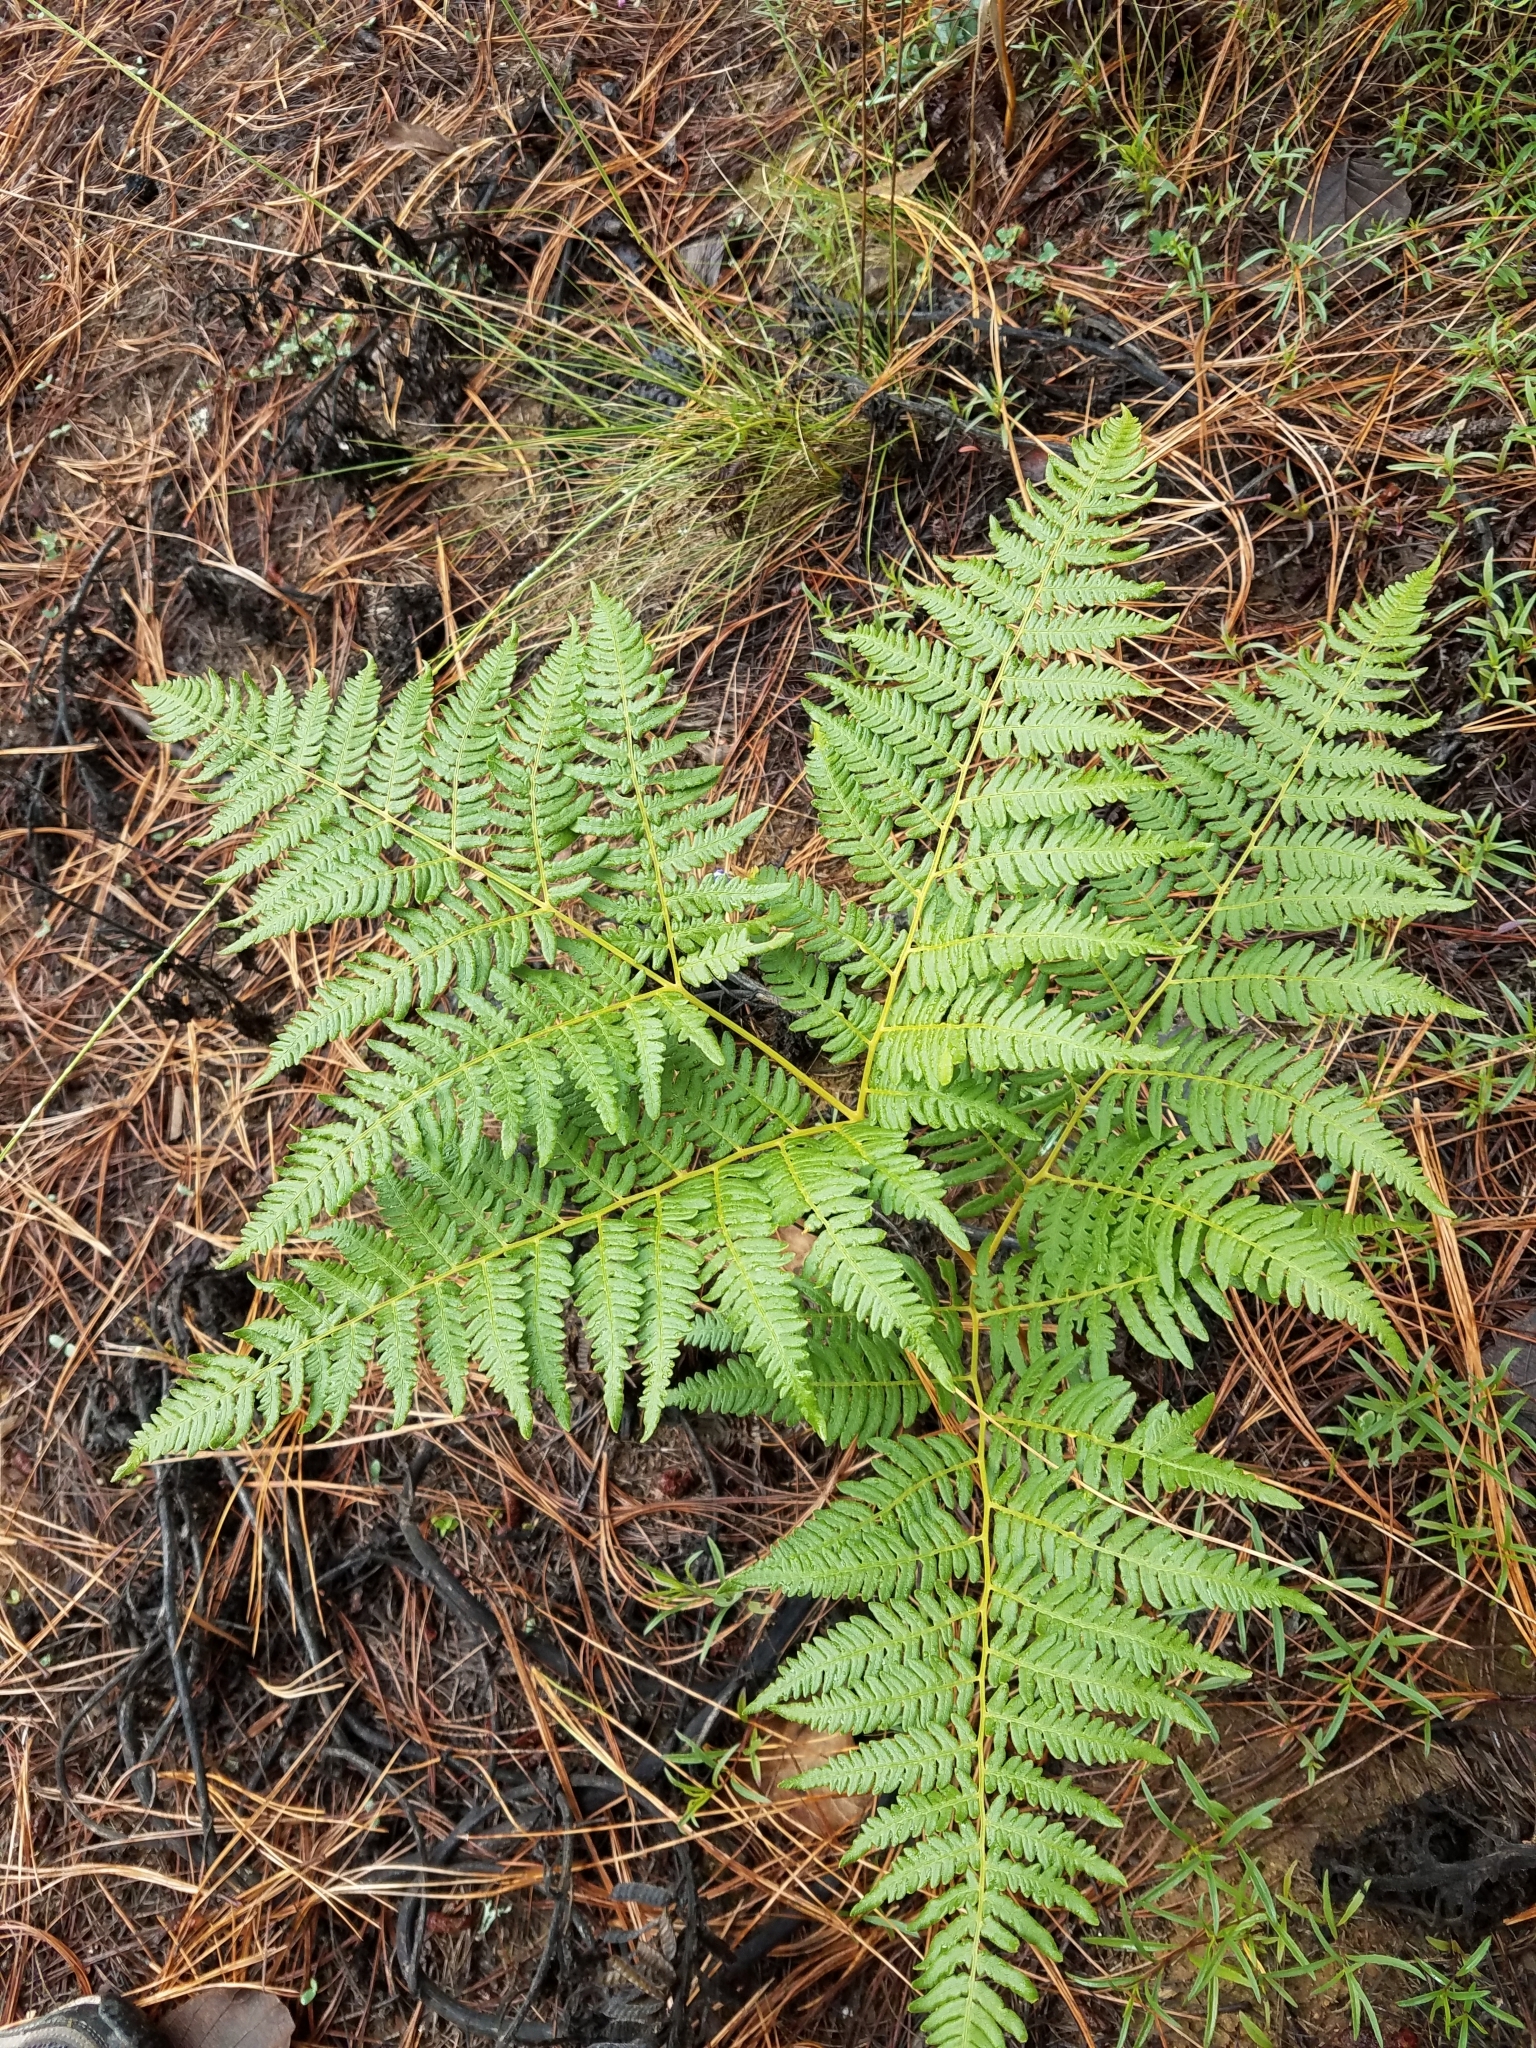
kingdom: Plantae
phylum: Tracheophyta
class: Polypodiopsida
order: Polypodiales
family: Dennstaedtiaceae
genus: Pteridium
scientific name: Pteridium aquilinum
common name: Bracken
